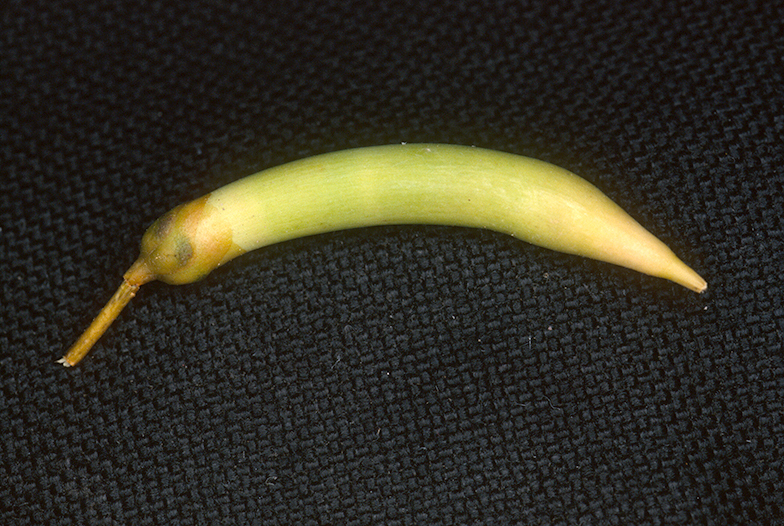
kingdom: Plantae
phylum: Tracheophyta
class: Magnoliopsida
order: Ericales
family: Primulaceae
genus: Aegiceras
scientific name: Aegiceras corniculatum
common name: River mangrove
